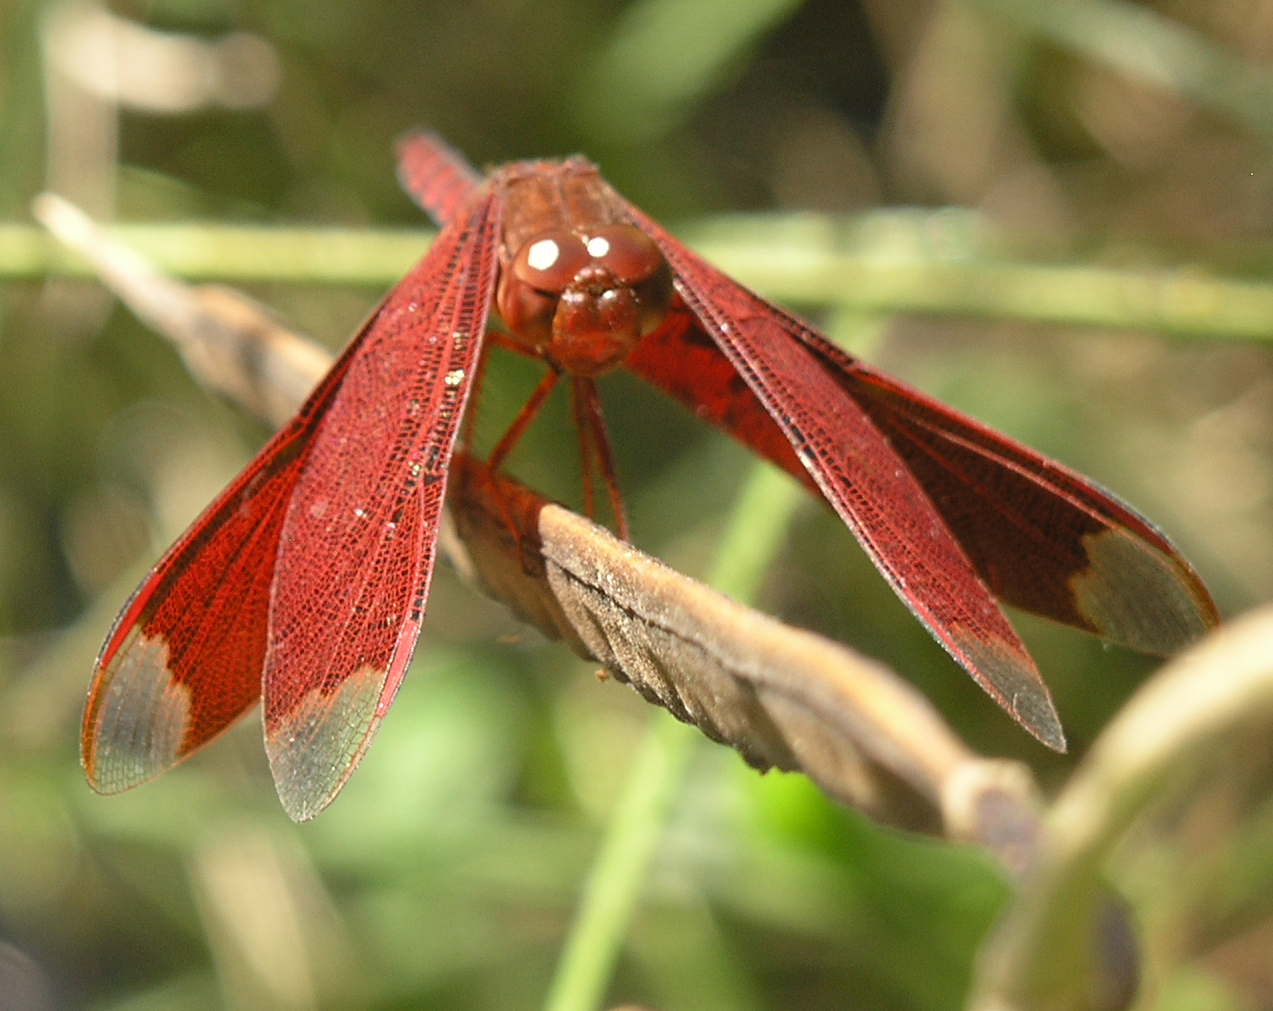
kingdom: Animalia
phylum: Arthropoda
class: Insecta
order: Odonata
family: Libellulidae
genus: Neurothemis
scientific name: Neurothemis fulvia
